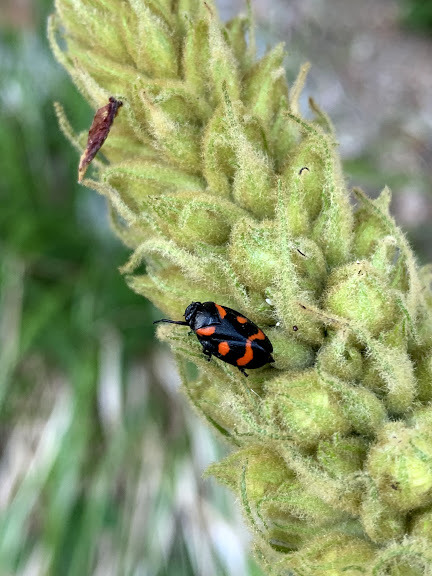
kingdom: Animalia
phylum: Arthropoda
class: Insecta
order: Hemiptera
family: Cercopidae
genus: Cercopis
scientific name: Cercopis sanguinolenta
